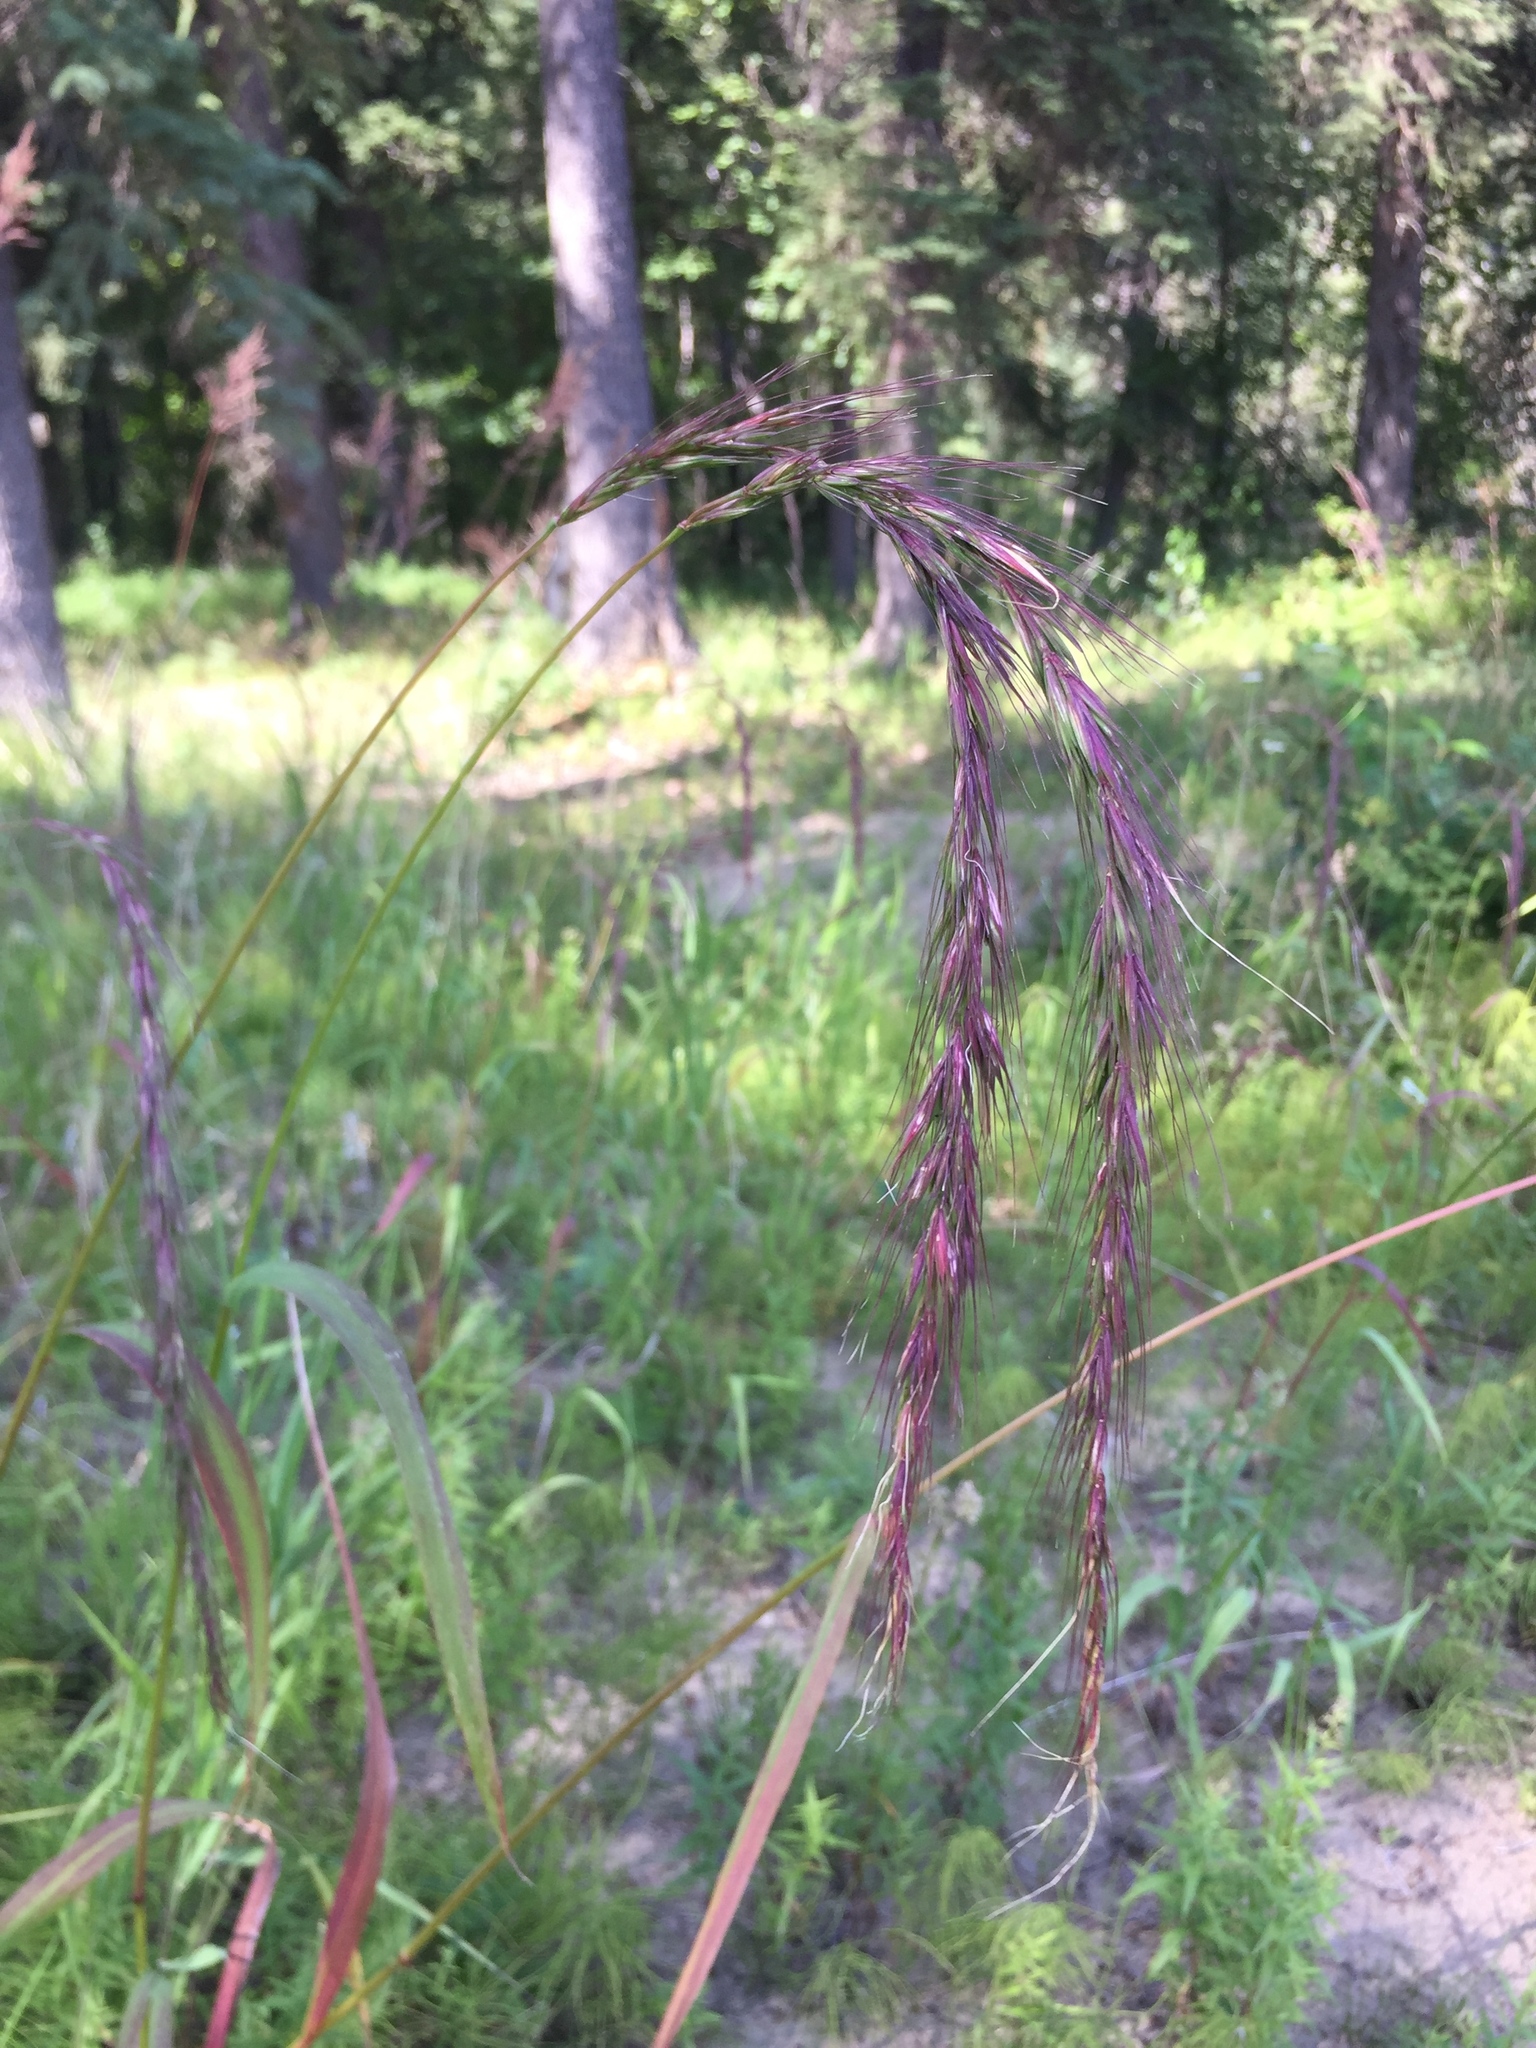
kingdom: Plantae
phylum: Tracheophyta
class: Liliopsida
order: Poales
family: Poaceae
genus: Elymus
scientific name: Elymus sibiricus
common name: Siberian wildrye
